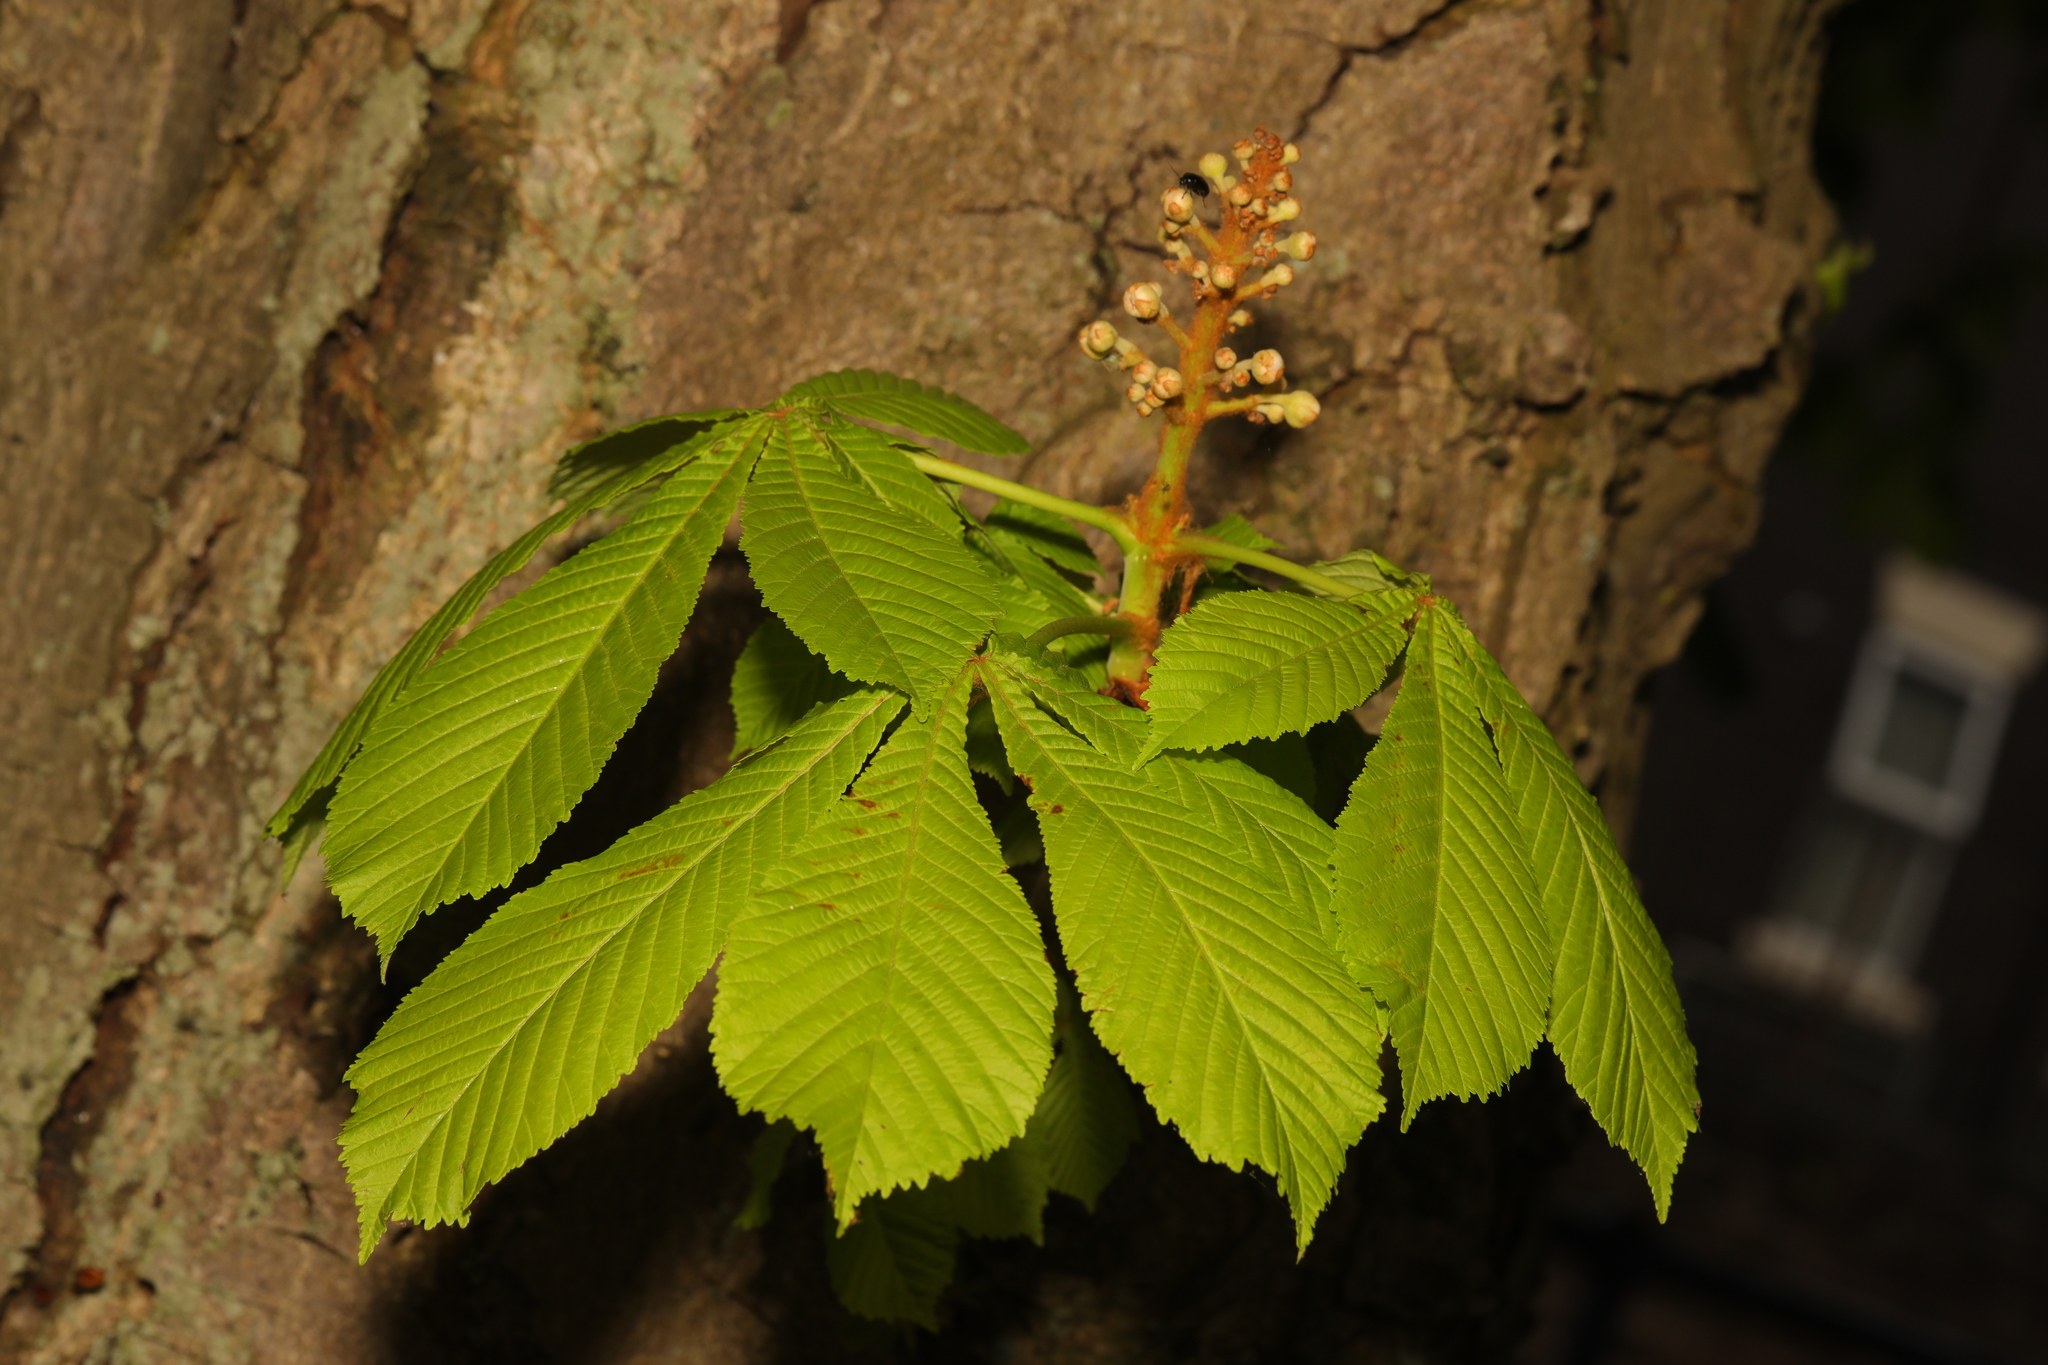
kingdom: Plantae
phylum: Tracheophyta
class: Magnoliopsida
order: Sapindales
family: Sapindaceae
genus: Aesculus
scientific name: Aesculus hippocastanum
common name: Horse-chestnut
